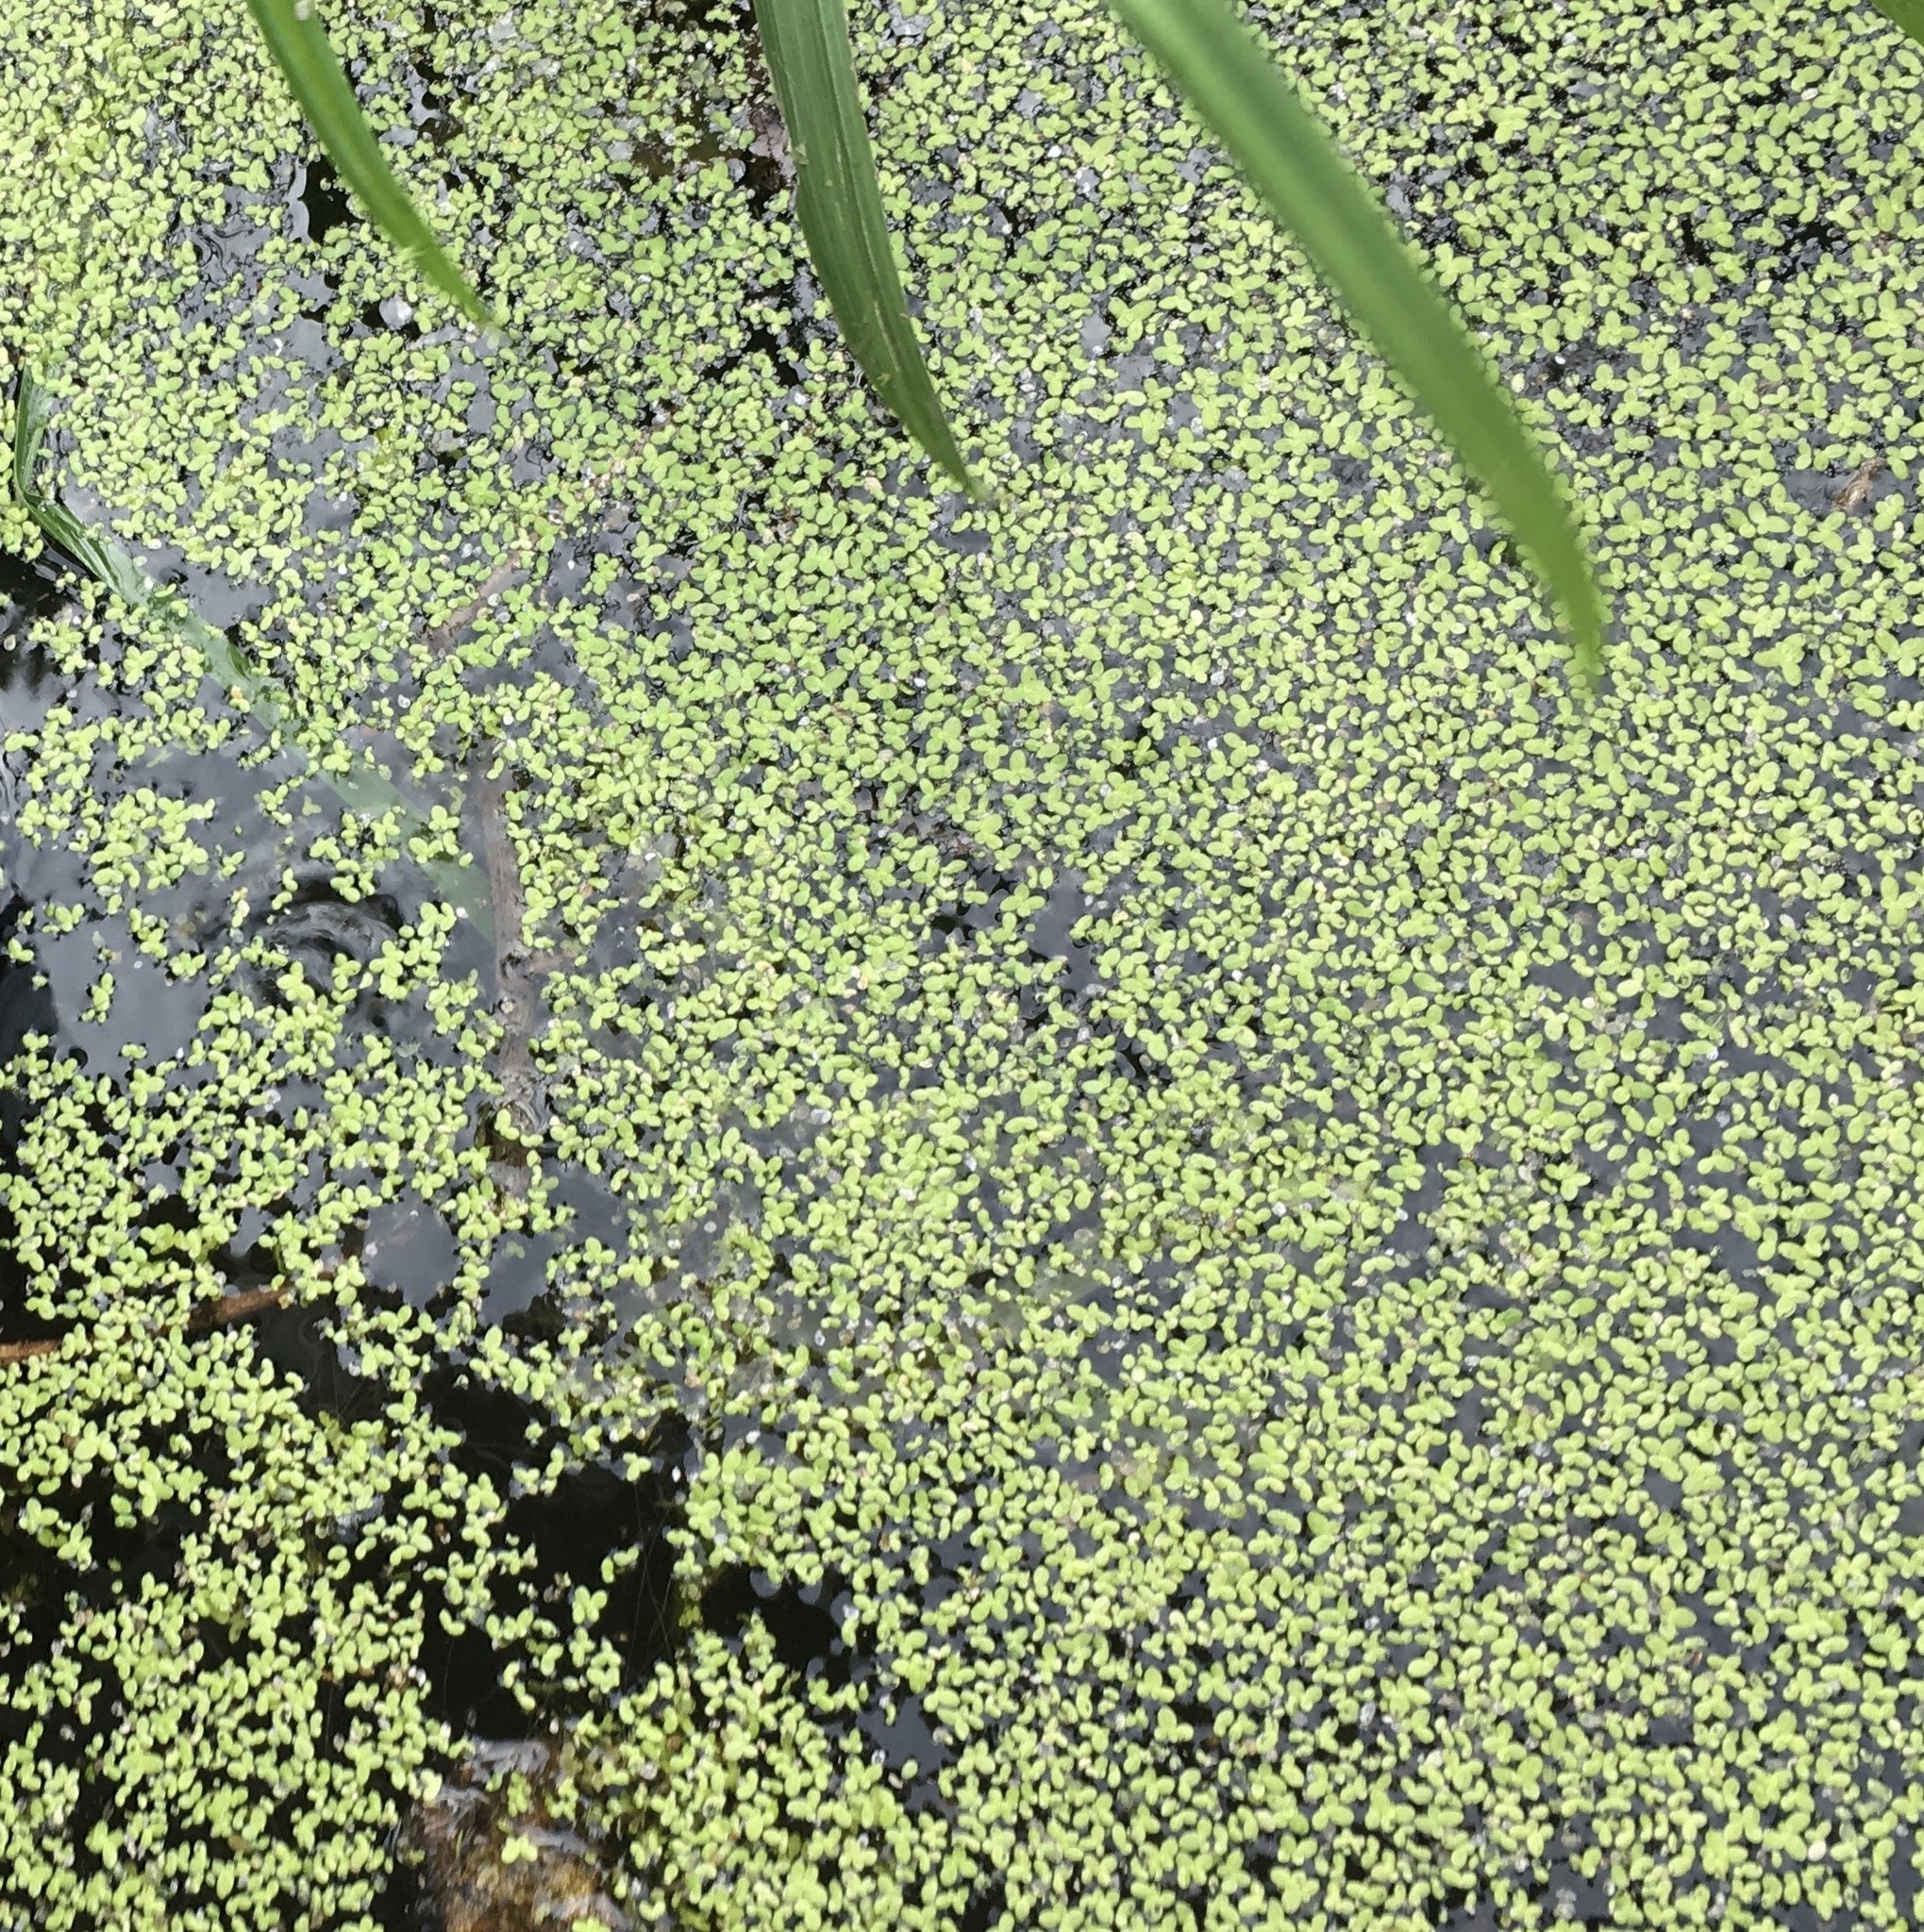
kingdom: Plantae
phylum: Tracheophyta
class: Liliopsida
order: Alismatales
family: Araceae
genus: Lemna
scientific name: Lemna aequinoctialis
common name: Duckweed
